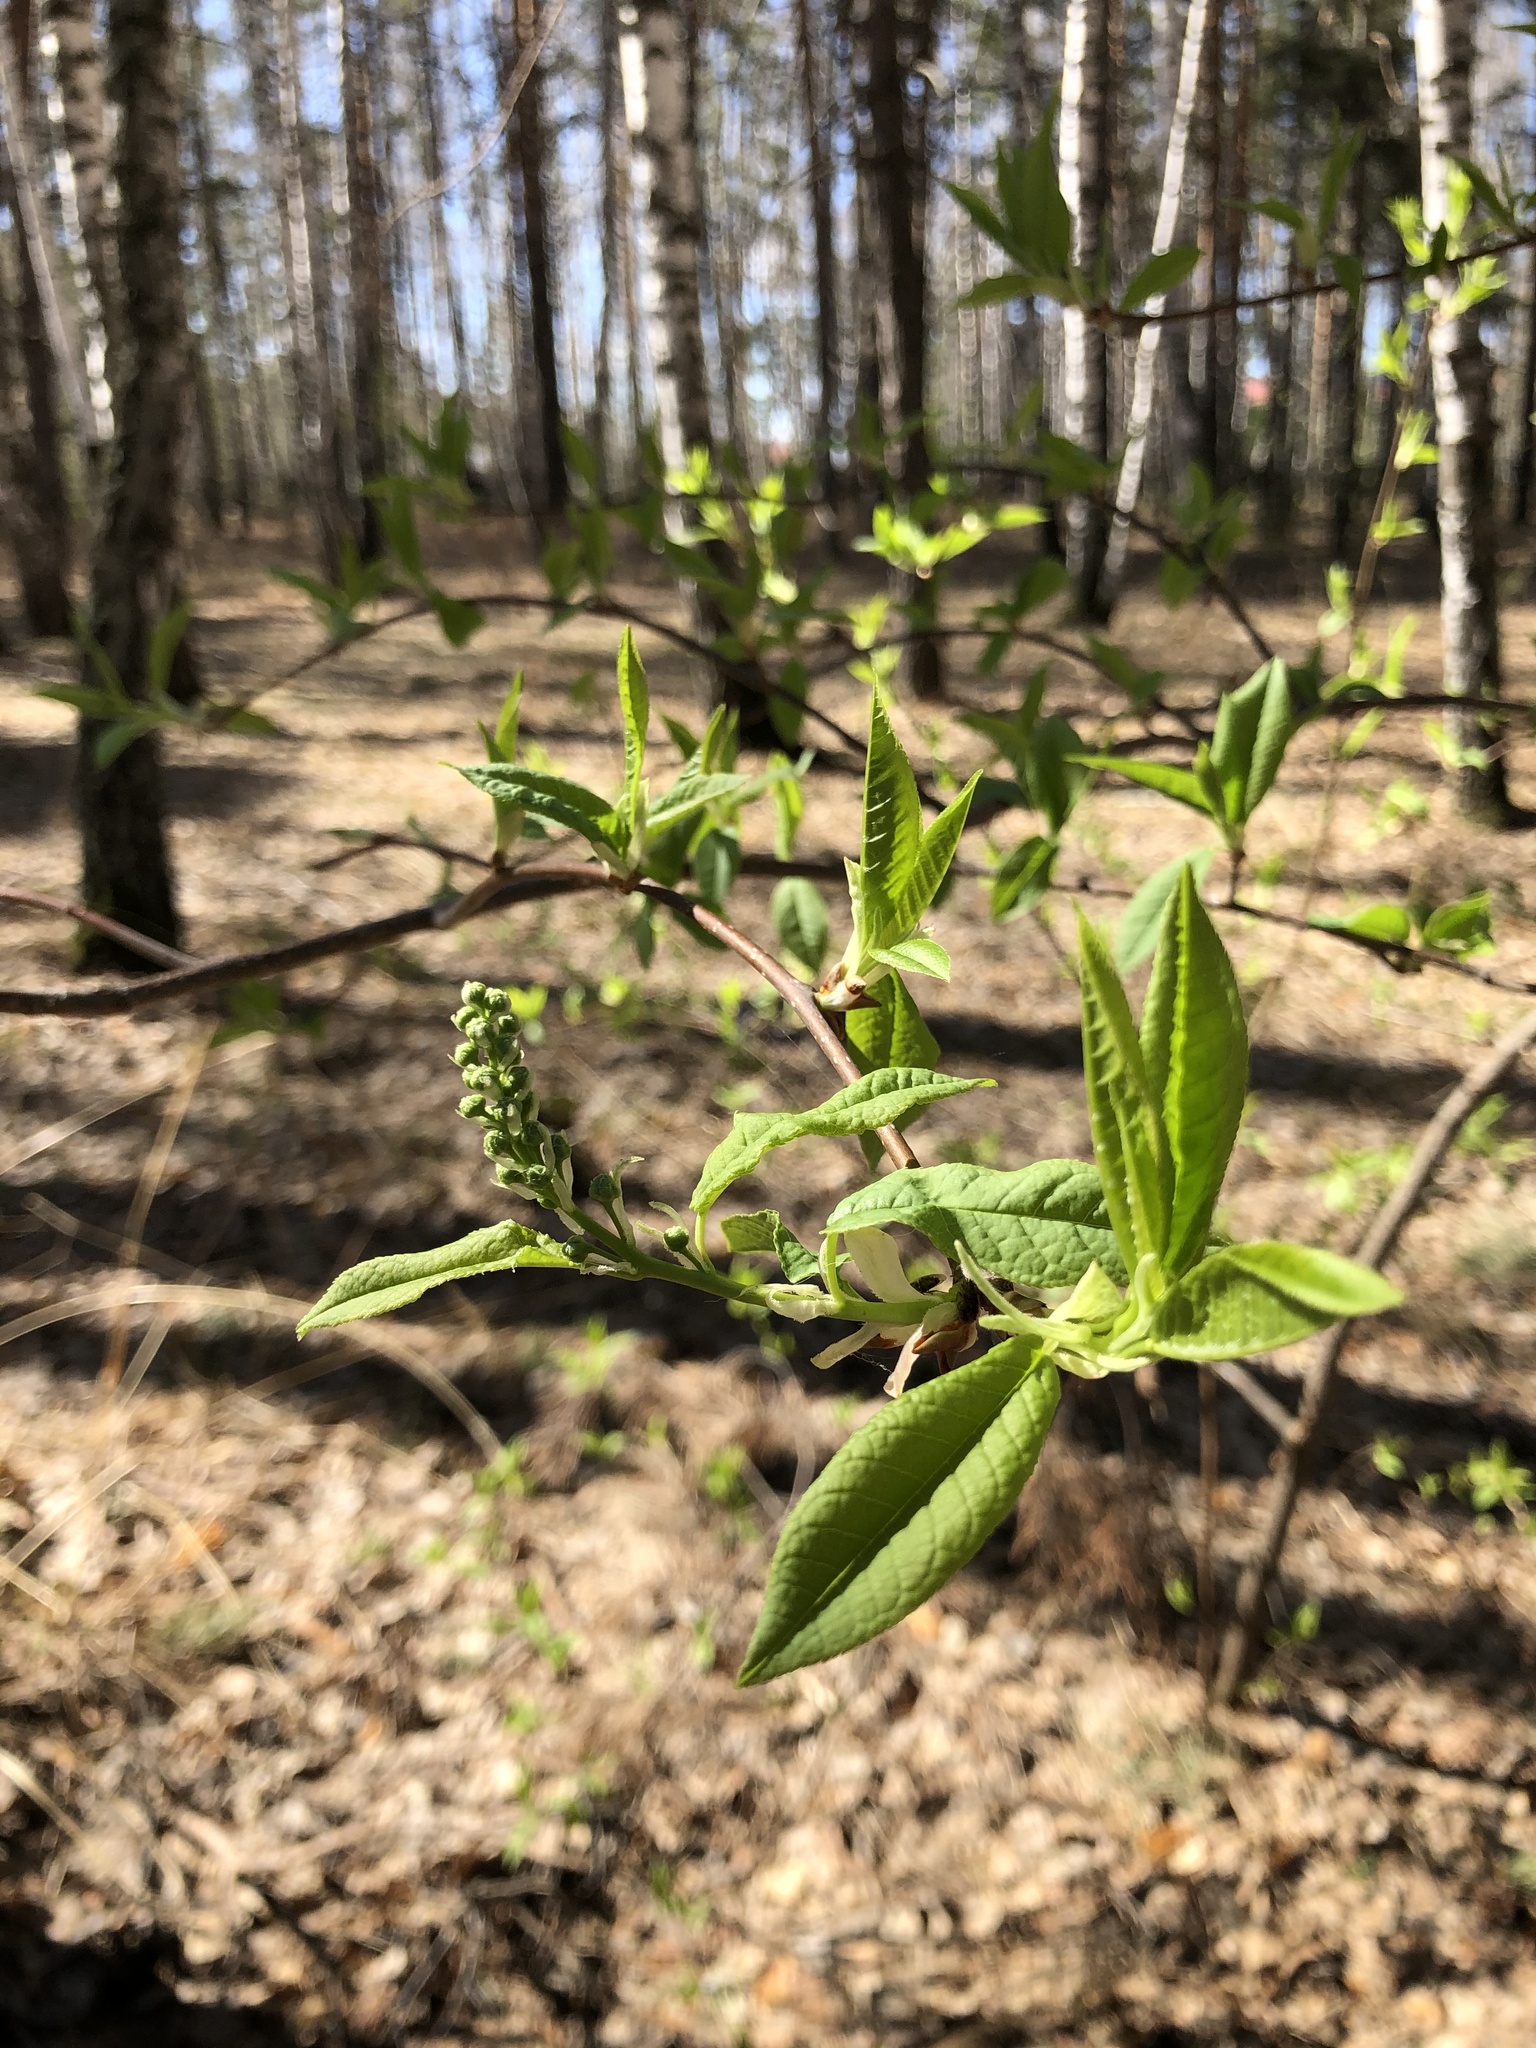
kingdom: Plantae
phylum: Tracheophyta
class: Magnoliopsida
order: Rosales
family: Rosaceae
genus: Prunus
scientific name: Prunus padus
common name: Bird cherry
